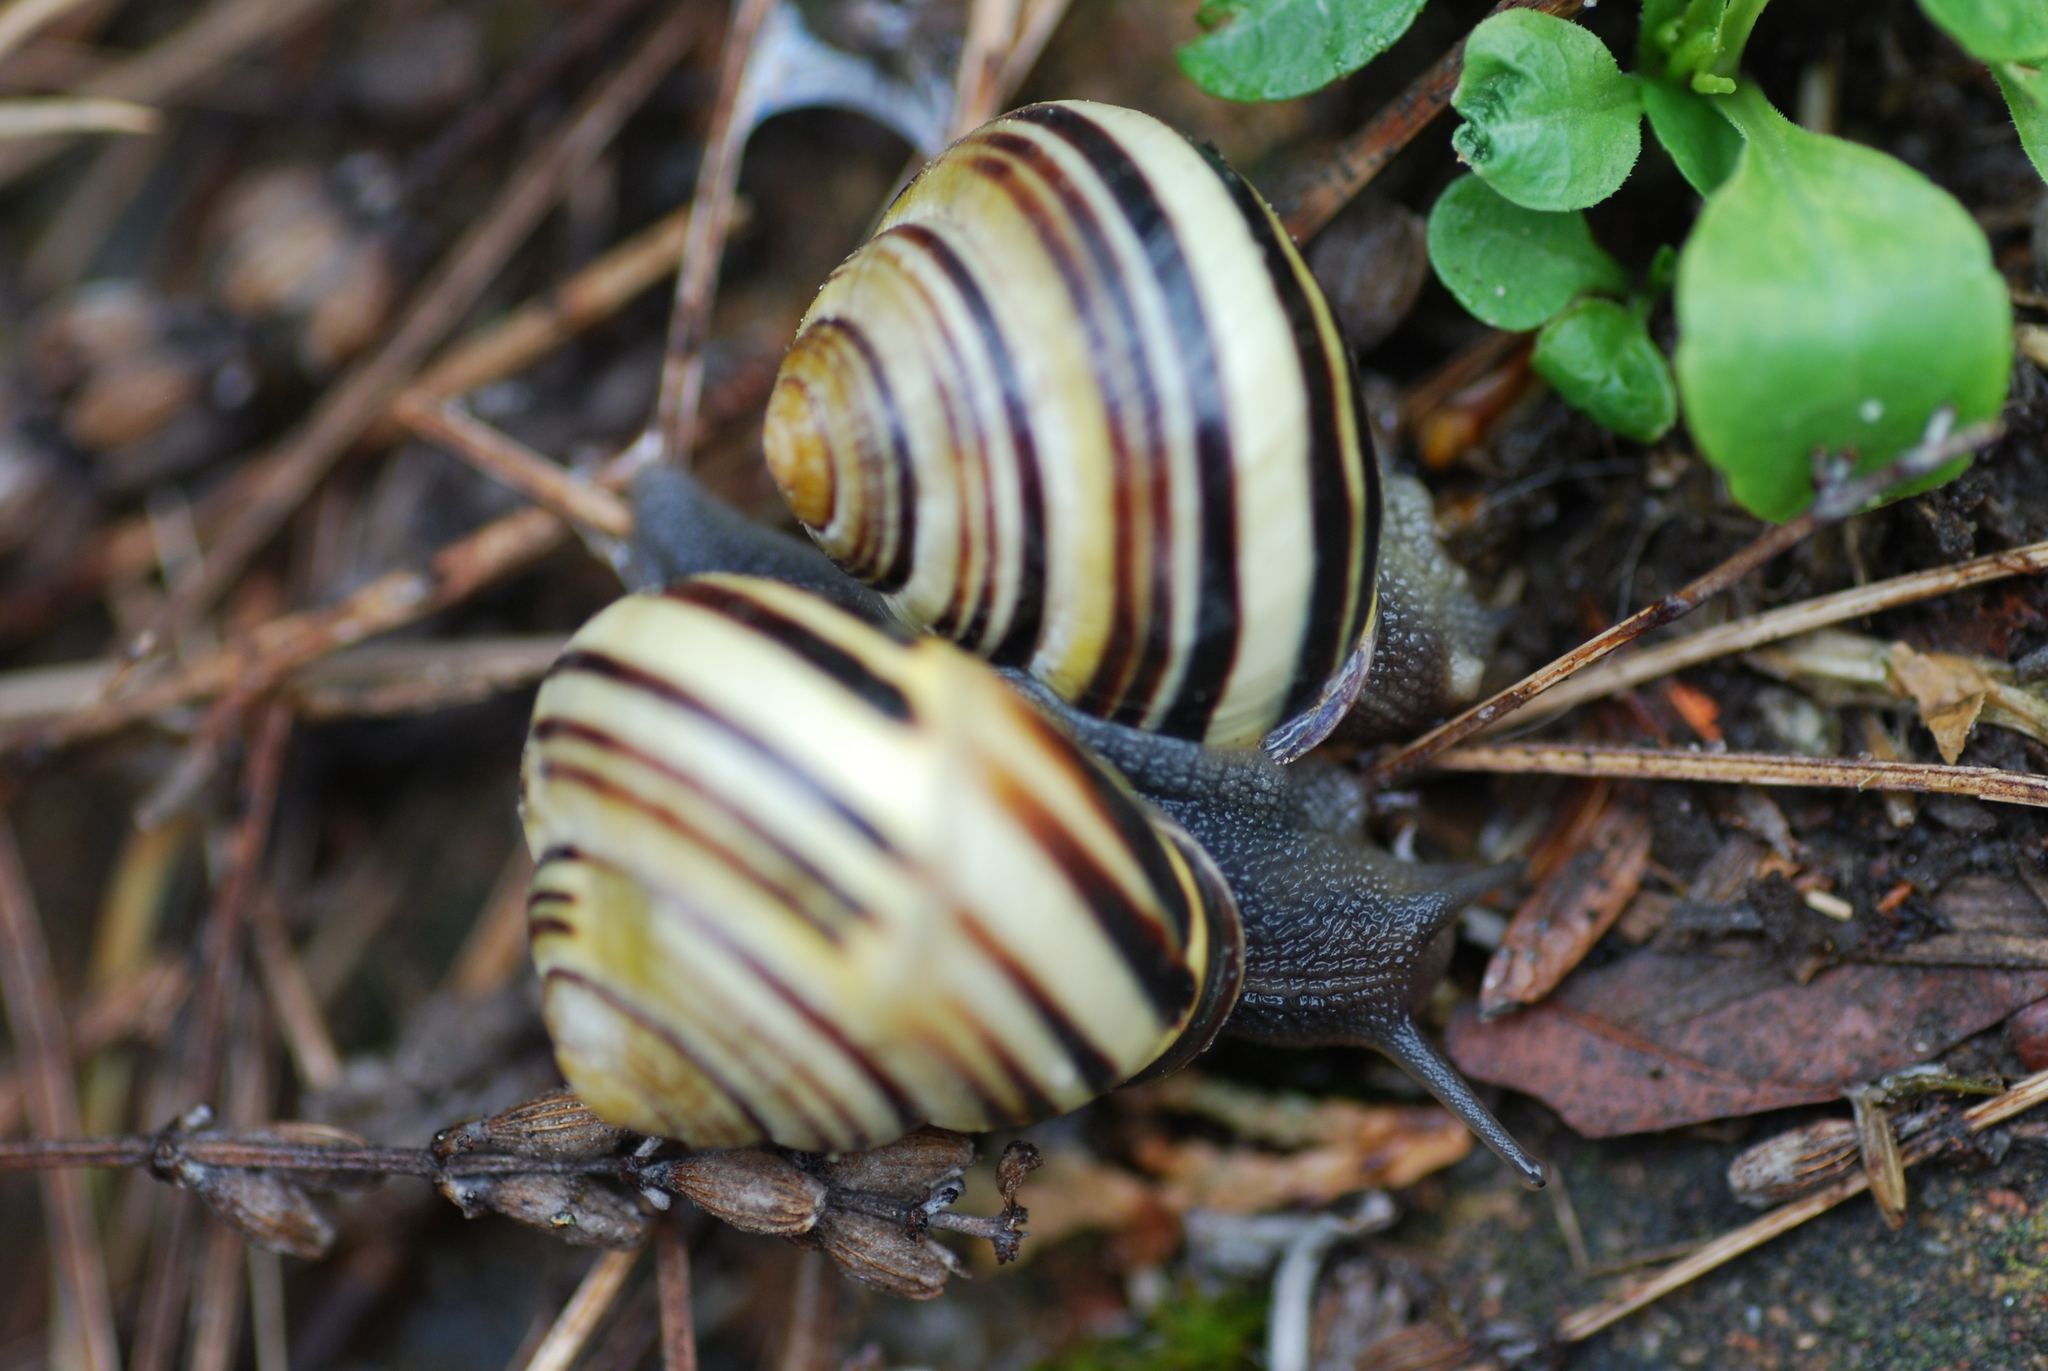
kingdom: Animalia
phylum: Mollusca
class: Gastropoda
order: Stylommatophora
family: Helicidae
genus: Cepaea
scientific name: Cepaea nemoralis
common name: Grovesnail
